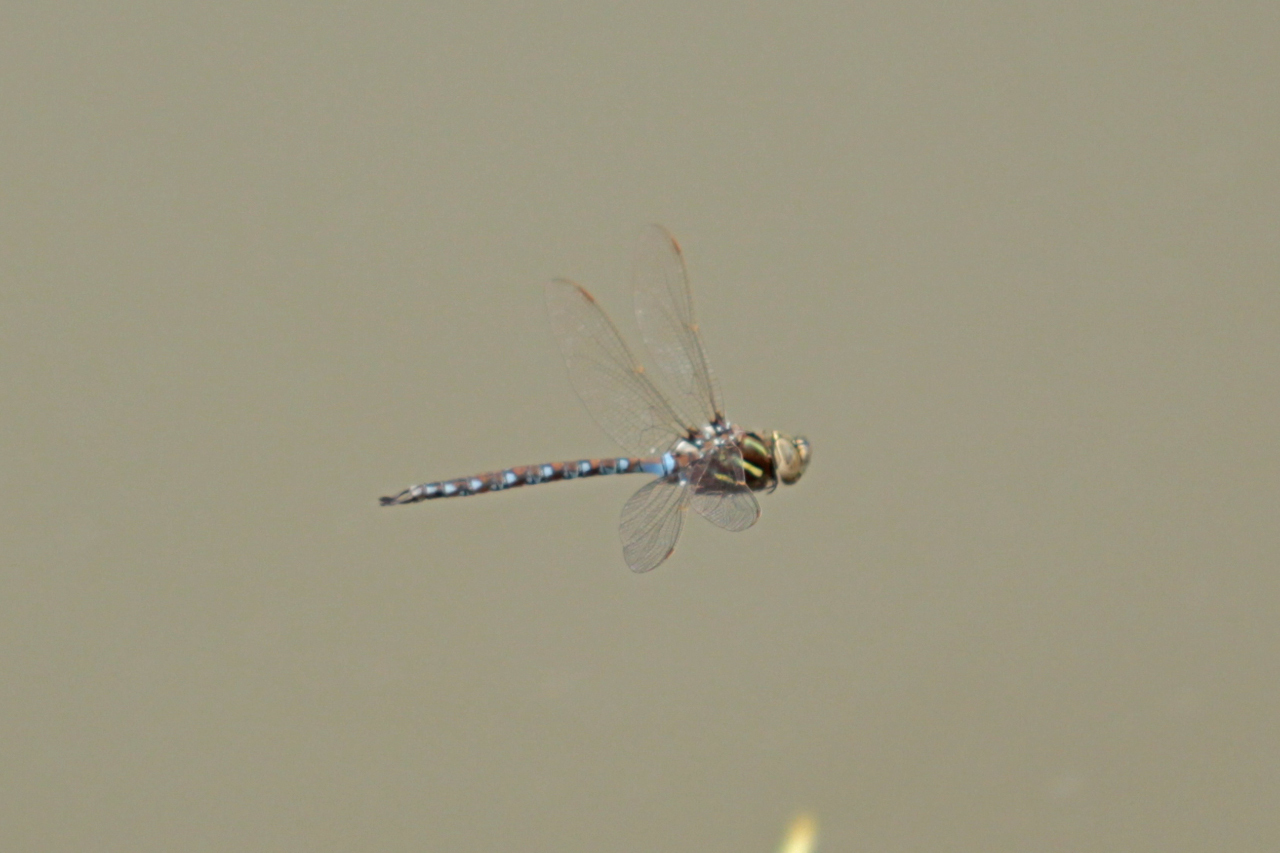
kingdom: Animalia
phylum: Arthropoda
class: Insecta
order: Odonata
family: Aeshnidae
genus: Basiaeschna
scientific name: Basiaeschna janata
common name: Springtime darner
